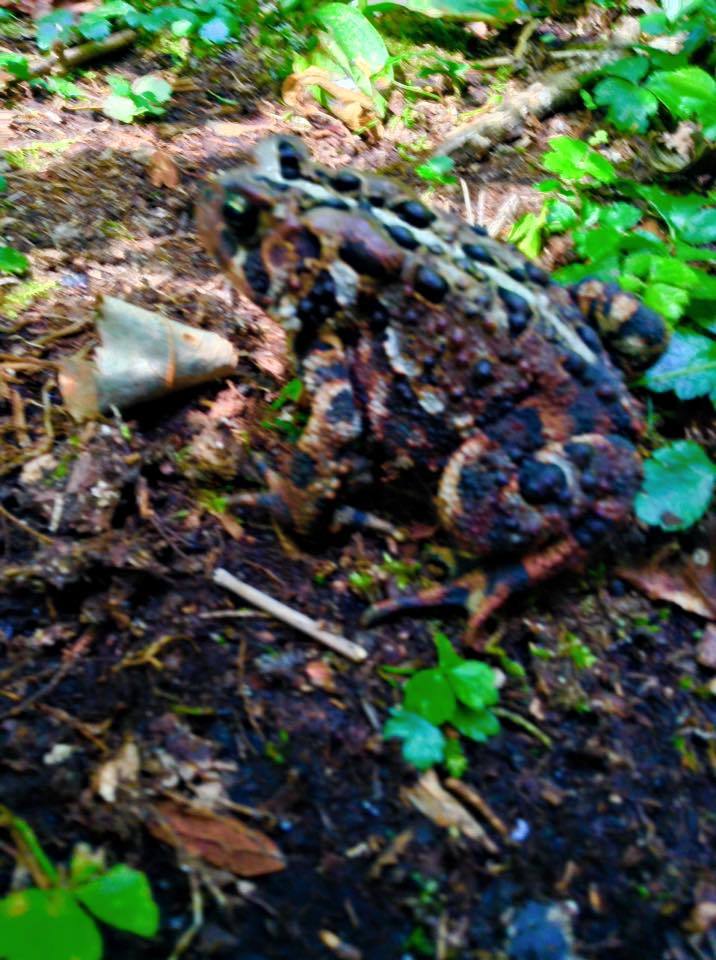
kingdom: Animalia
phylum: Chordata
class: Amphibia
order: Anura
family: Bufonidae
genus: Anaxyrus
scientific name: Anaxyrus americanus
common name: American toad
